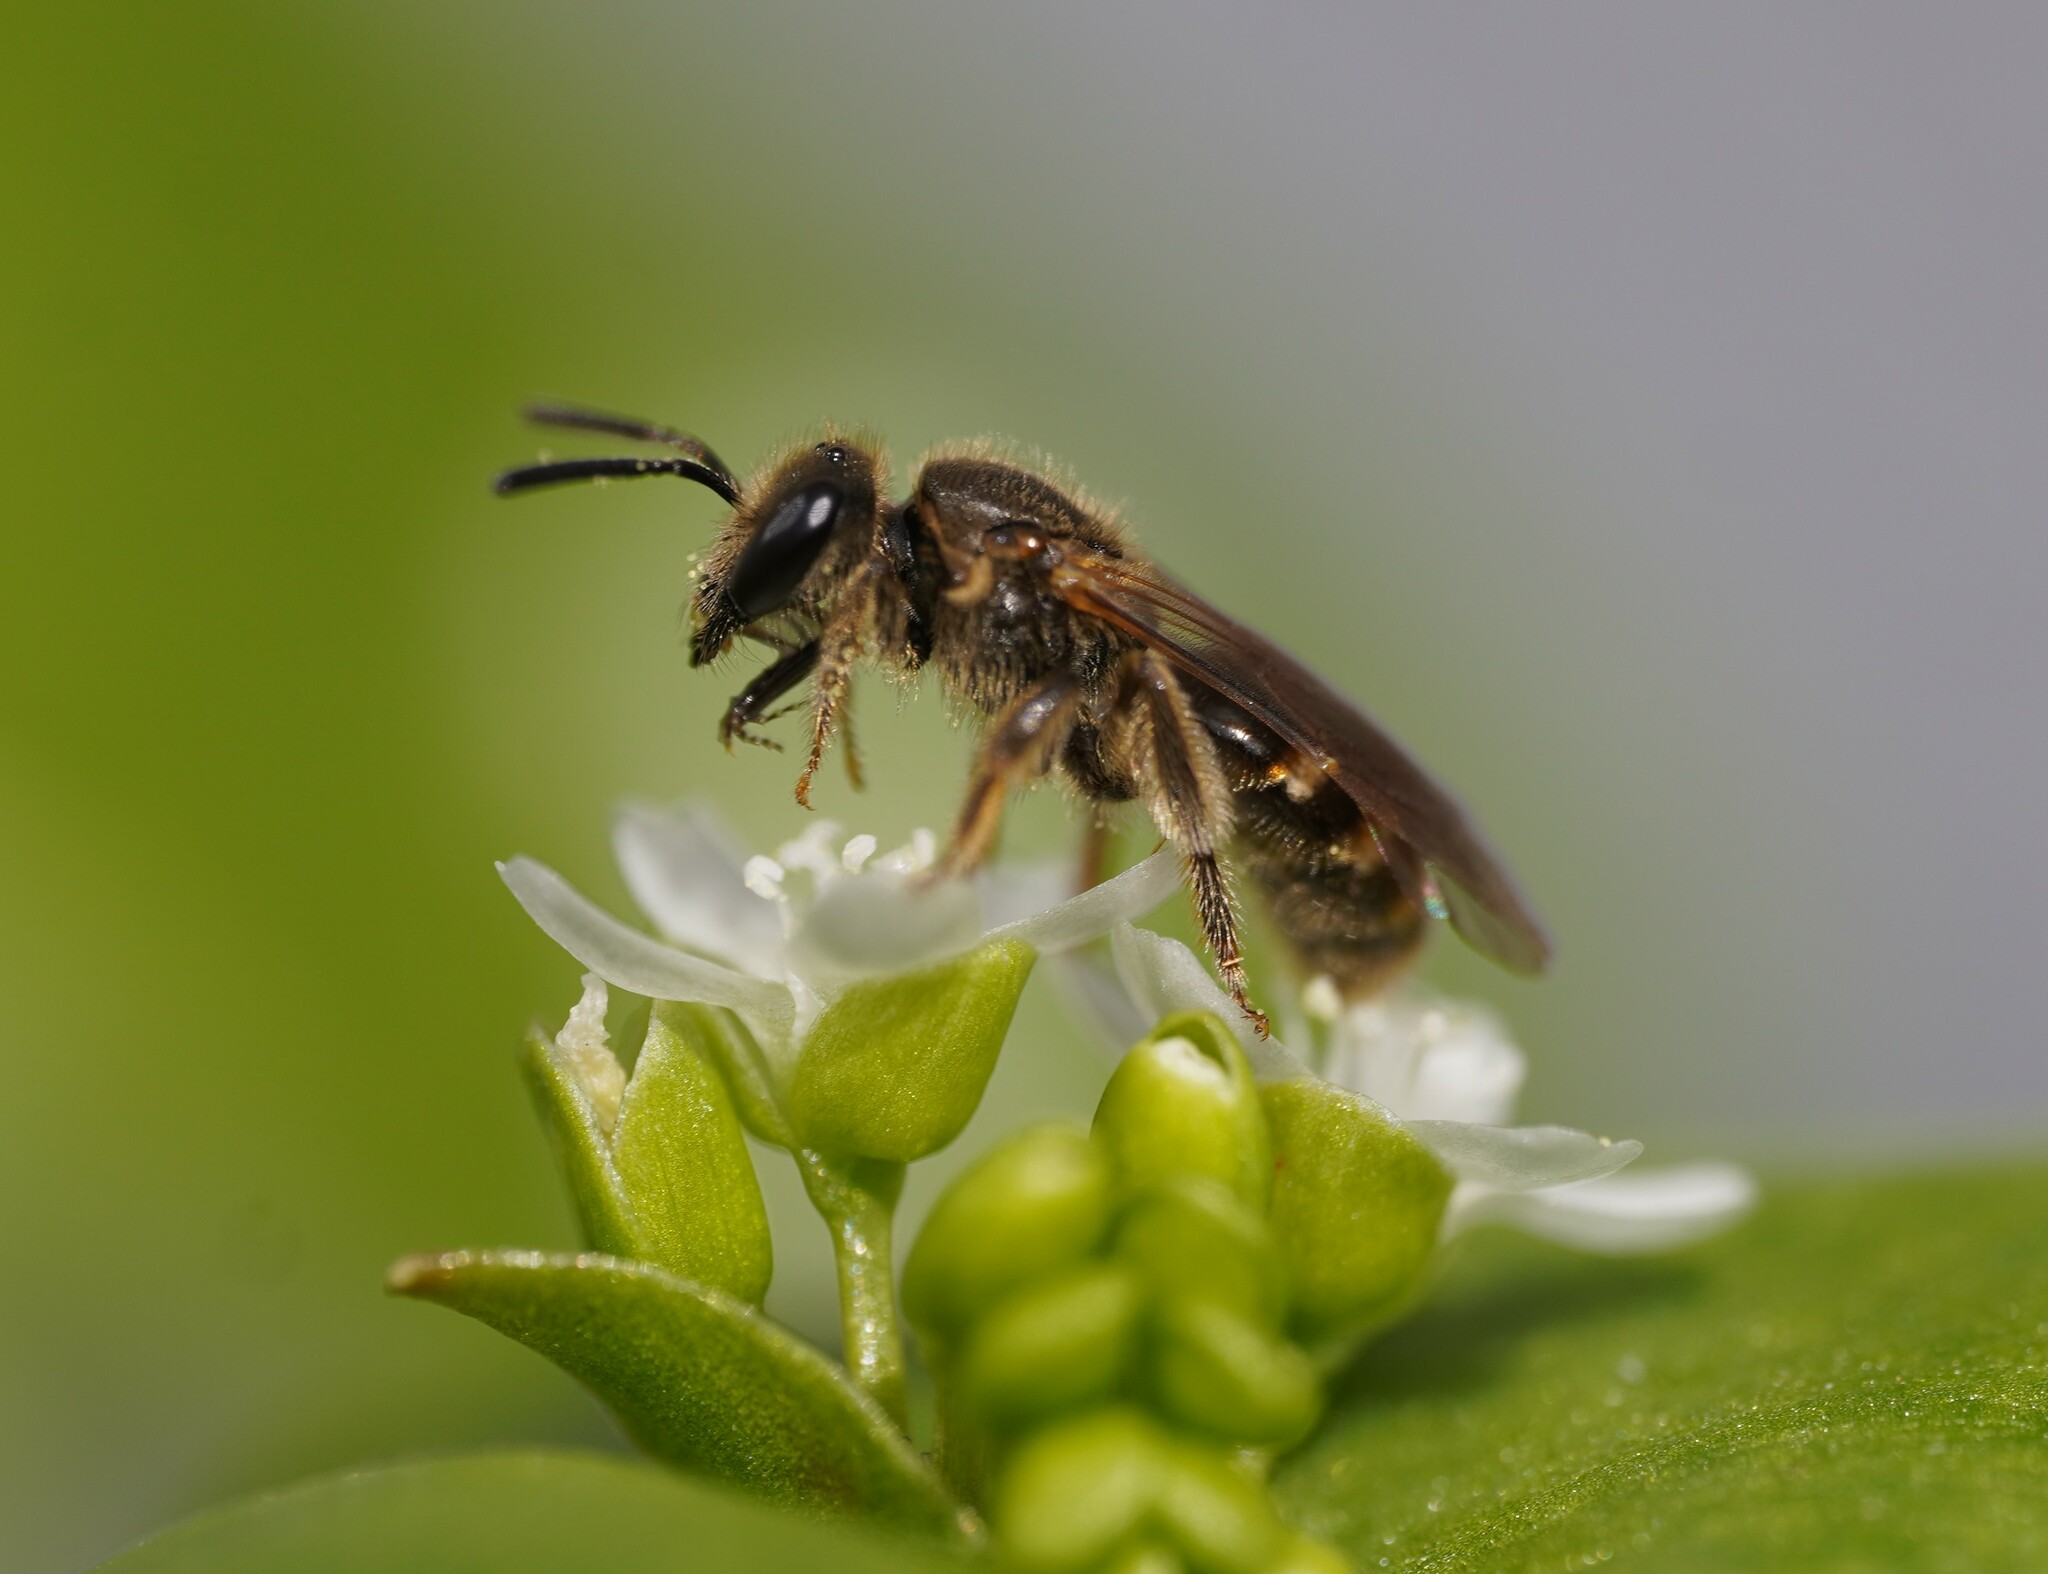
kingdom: Animalia
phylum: Arthropoda
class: Insecta
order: Hymenoptera
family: Halictidae
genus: Lasioglossum
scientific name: Lasioglossum laticeps
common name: Broad-faced furrow bee
